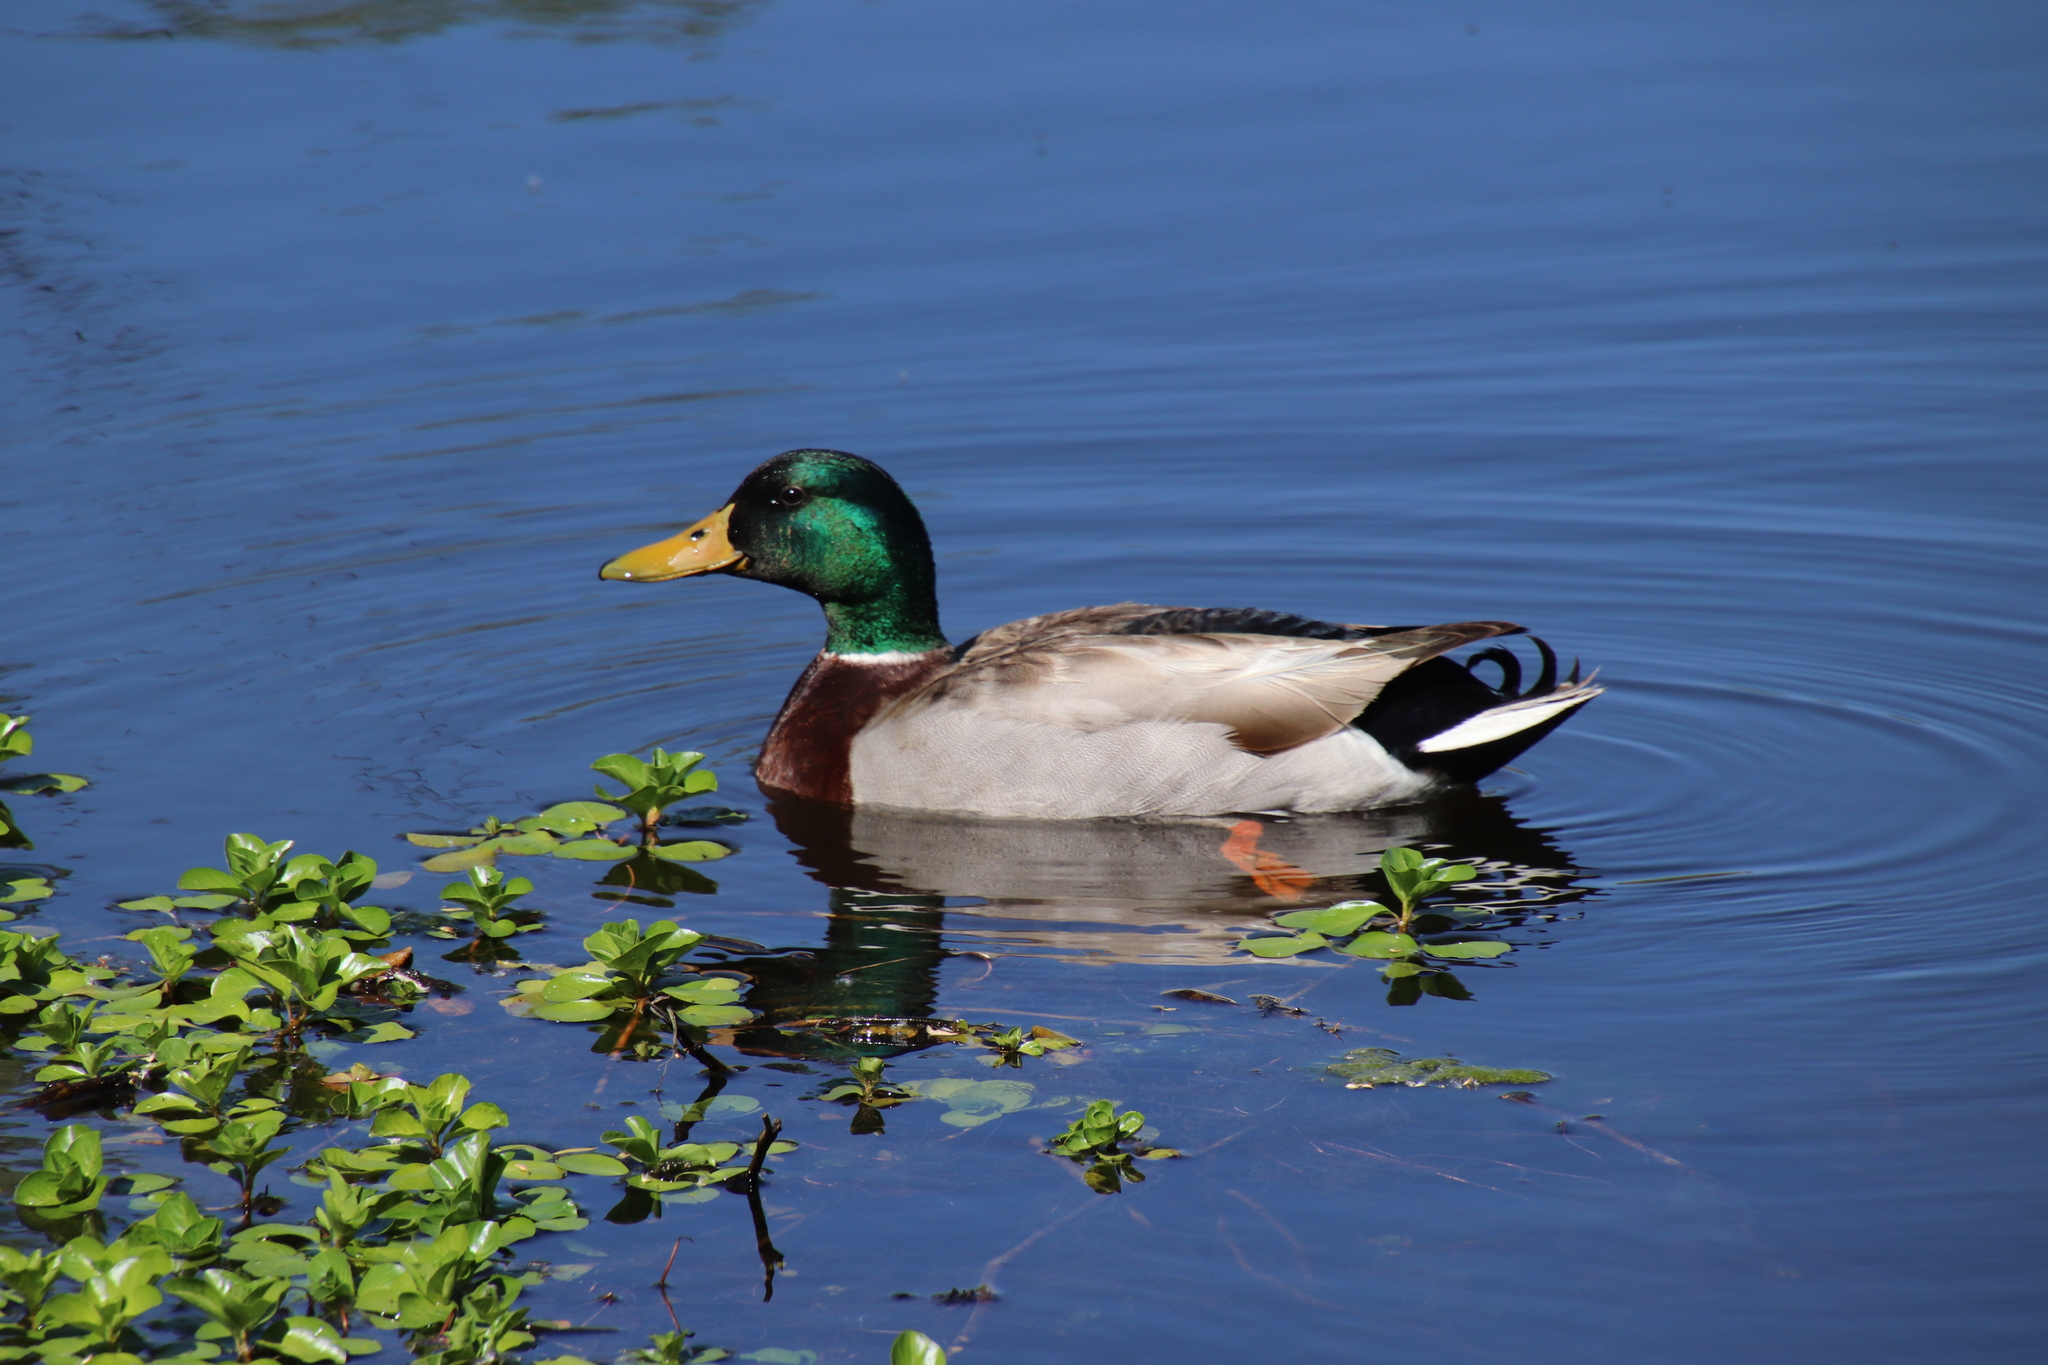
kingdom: Animalia
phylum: Chordata
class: Aves
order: Anseriformes
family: Anatidae
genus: Anas
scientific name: Anas platyrhynchos
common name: Mallard
